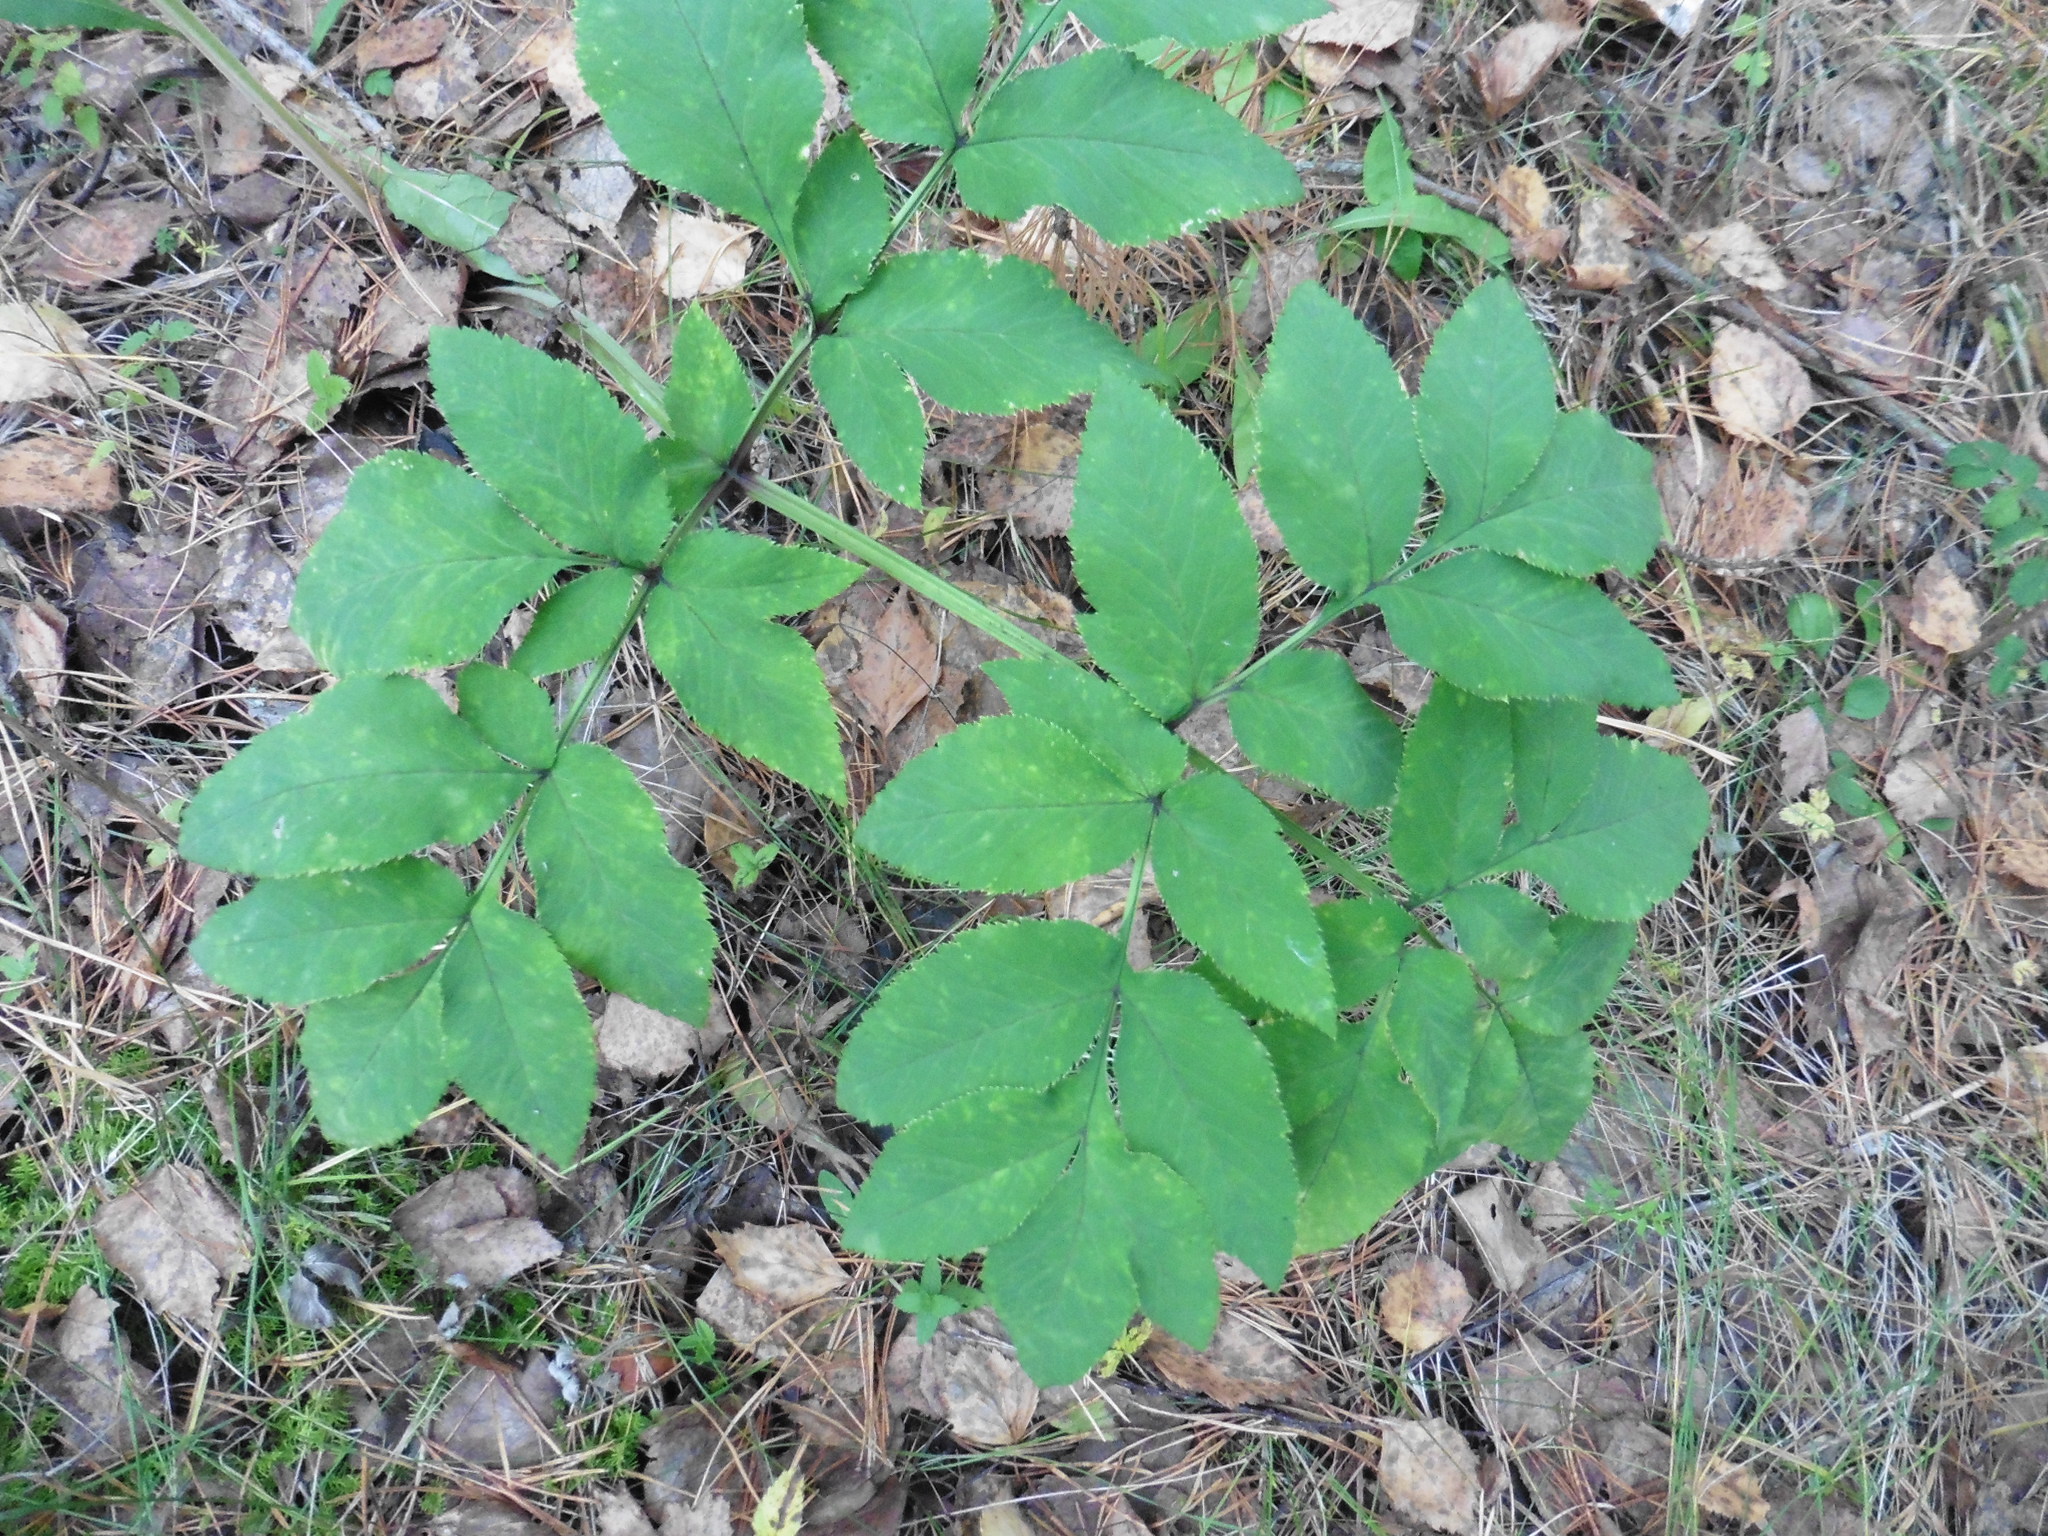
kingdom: Plantae
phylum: Tracheophyta
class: Magnoliopsida
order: Apiales
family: Apiaceae
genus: Angelica
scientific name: Angelica sylvestris
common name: Wild angelica
